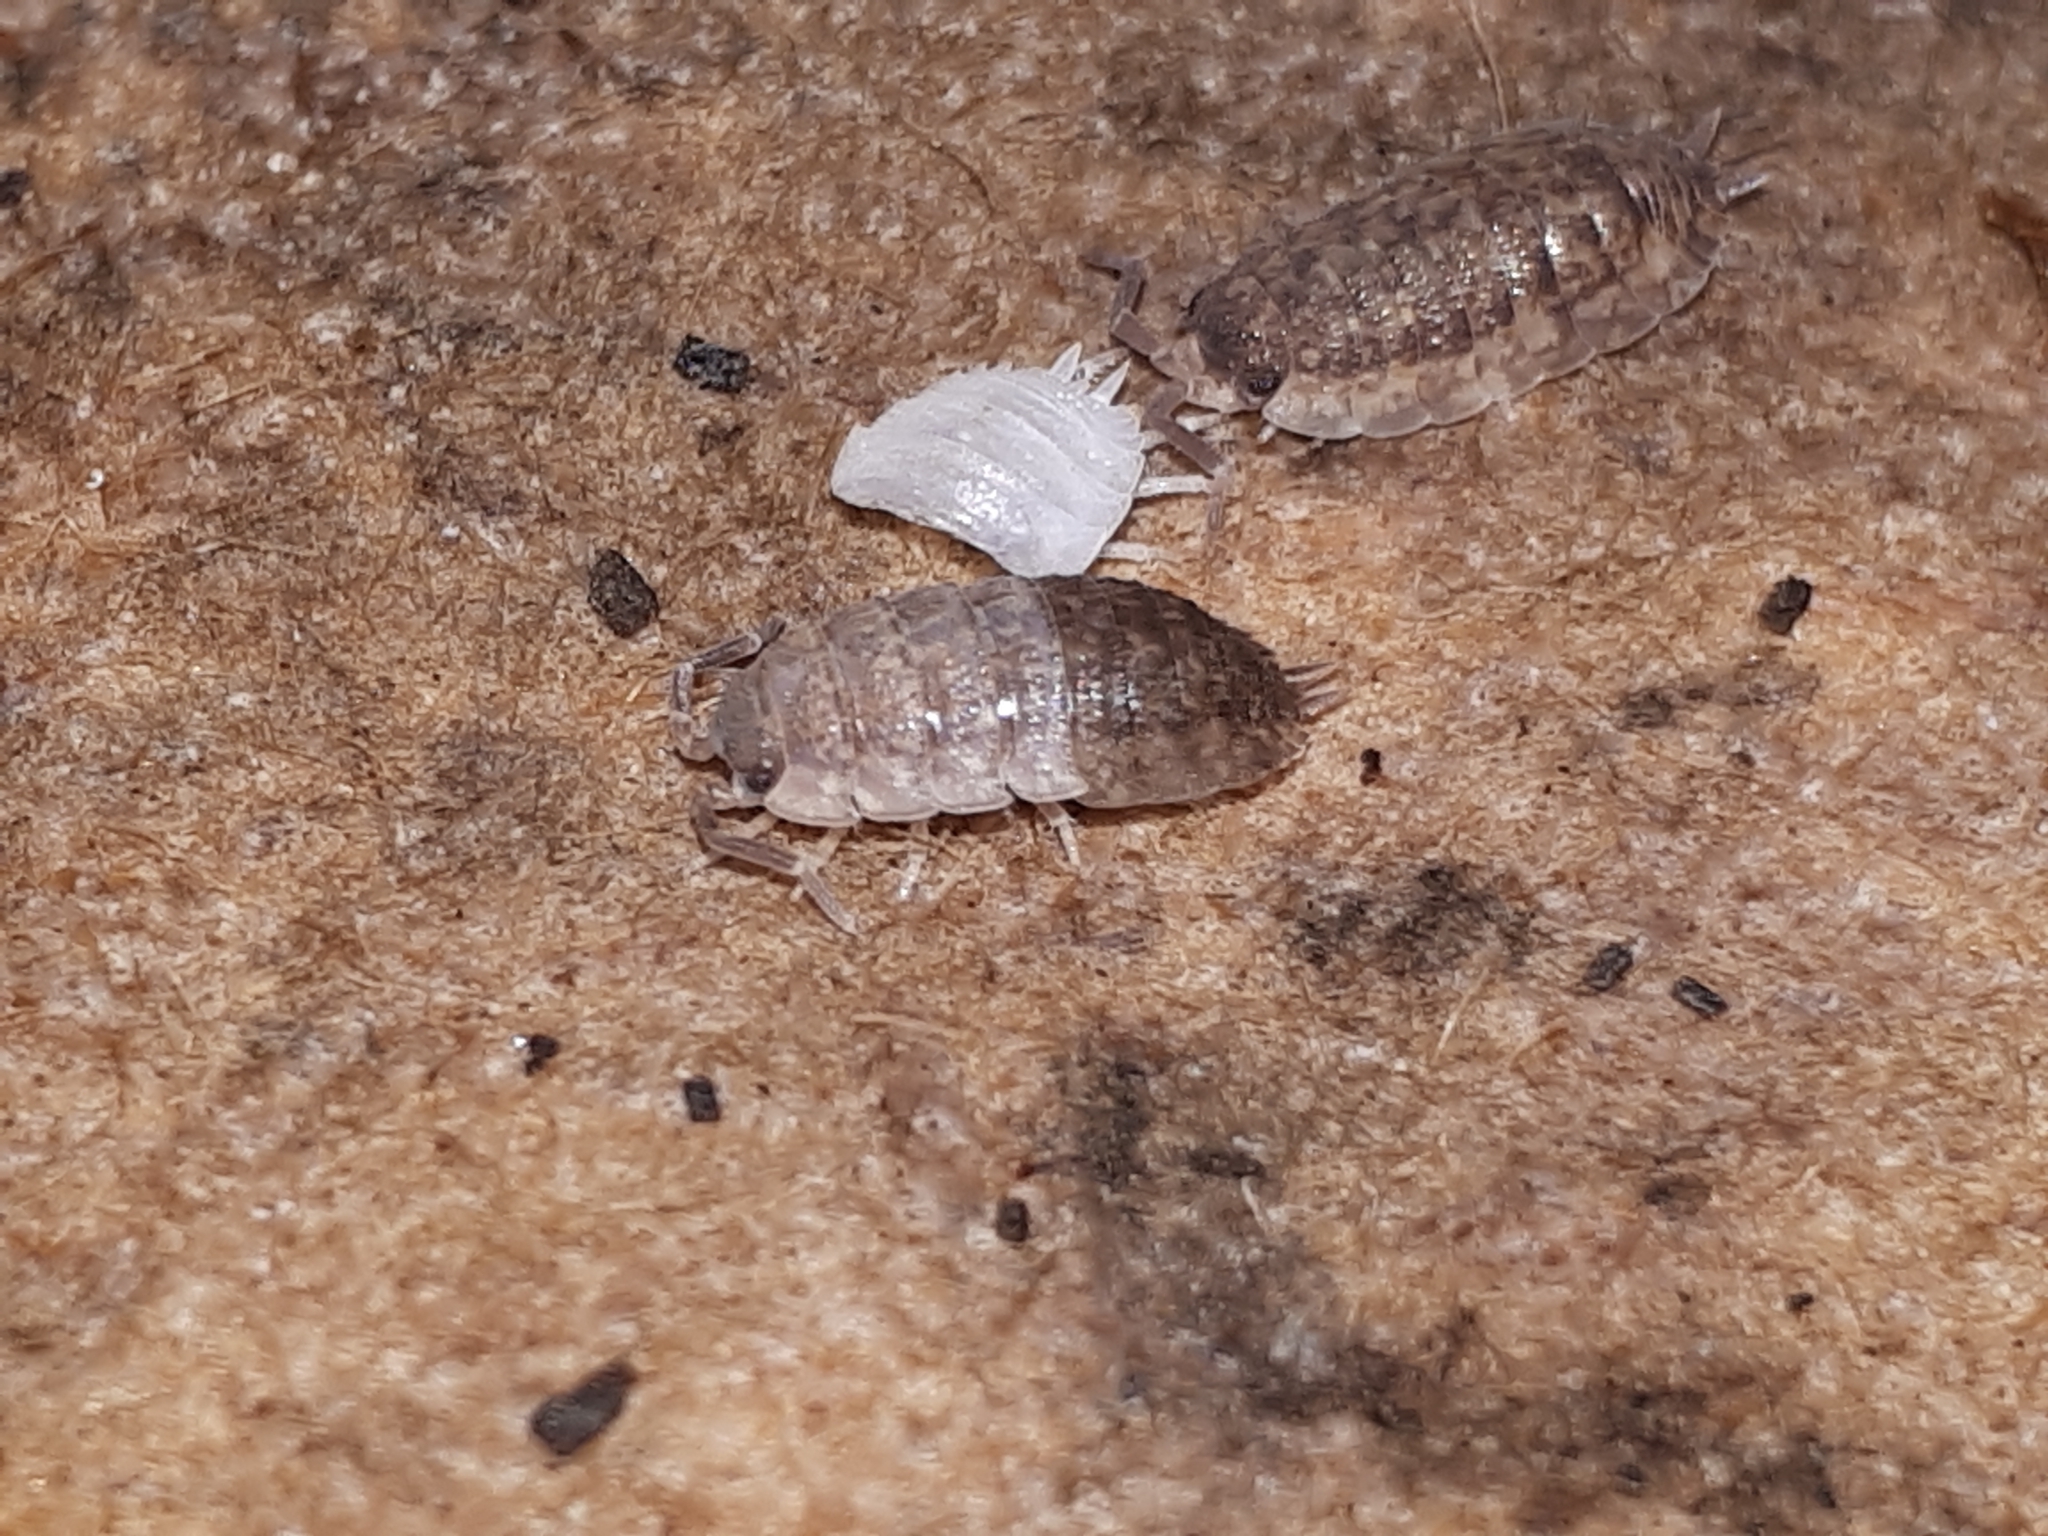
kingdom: Animalia
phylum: Arthropoda
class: Malacostraca
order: Isopoda
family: Porcellionidae
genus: Porcellio
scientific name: Porcellio scaber
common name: Common rough woodlouse
